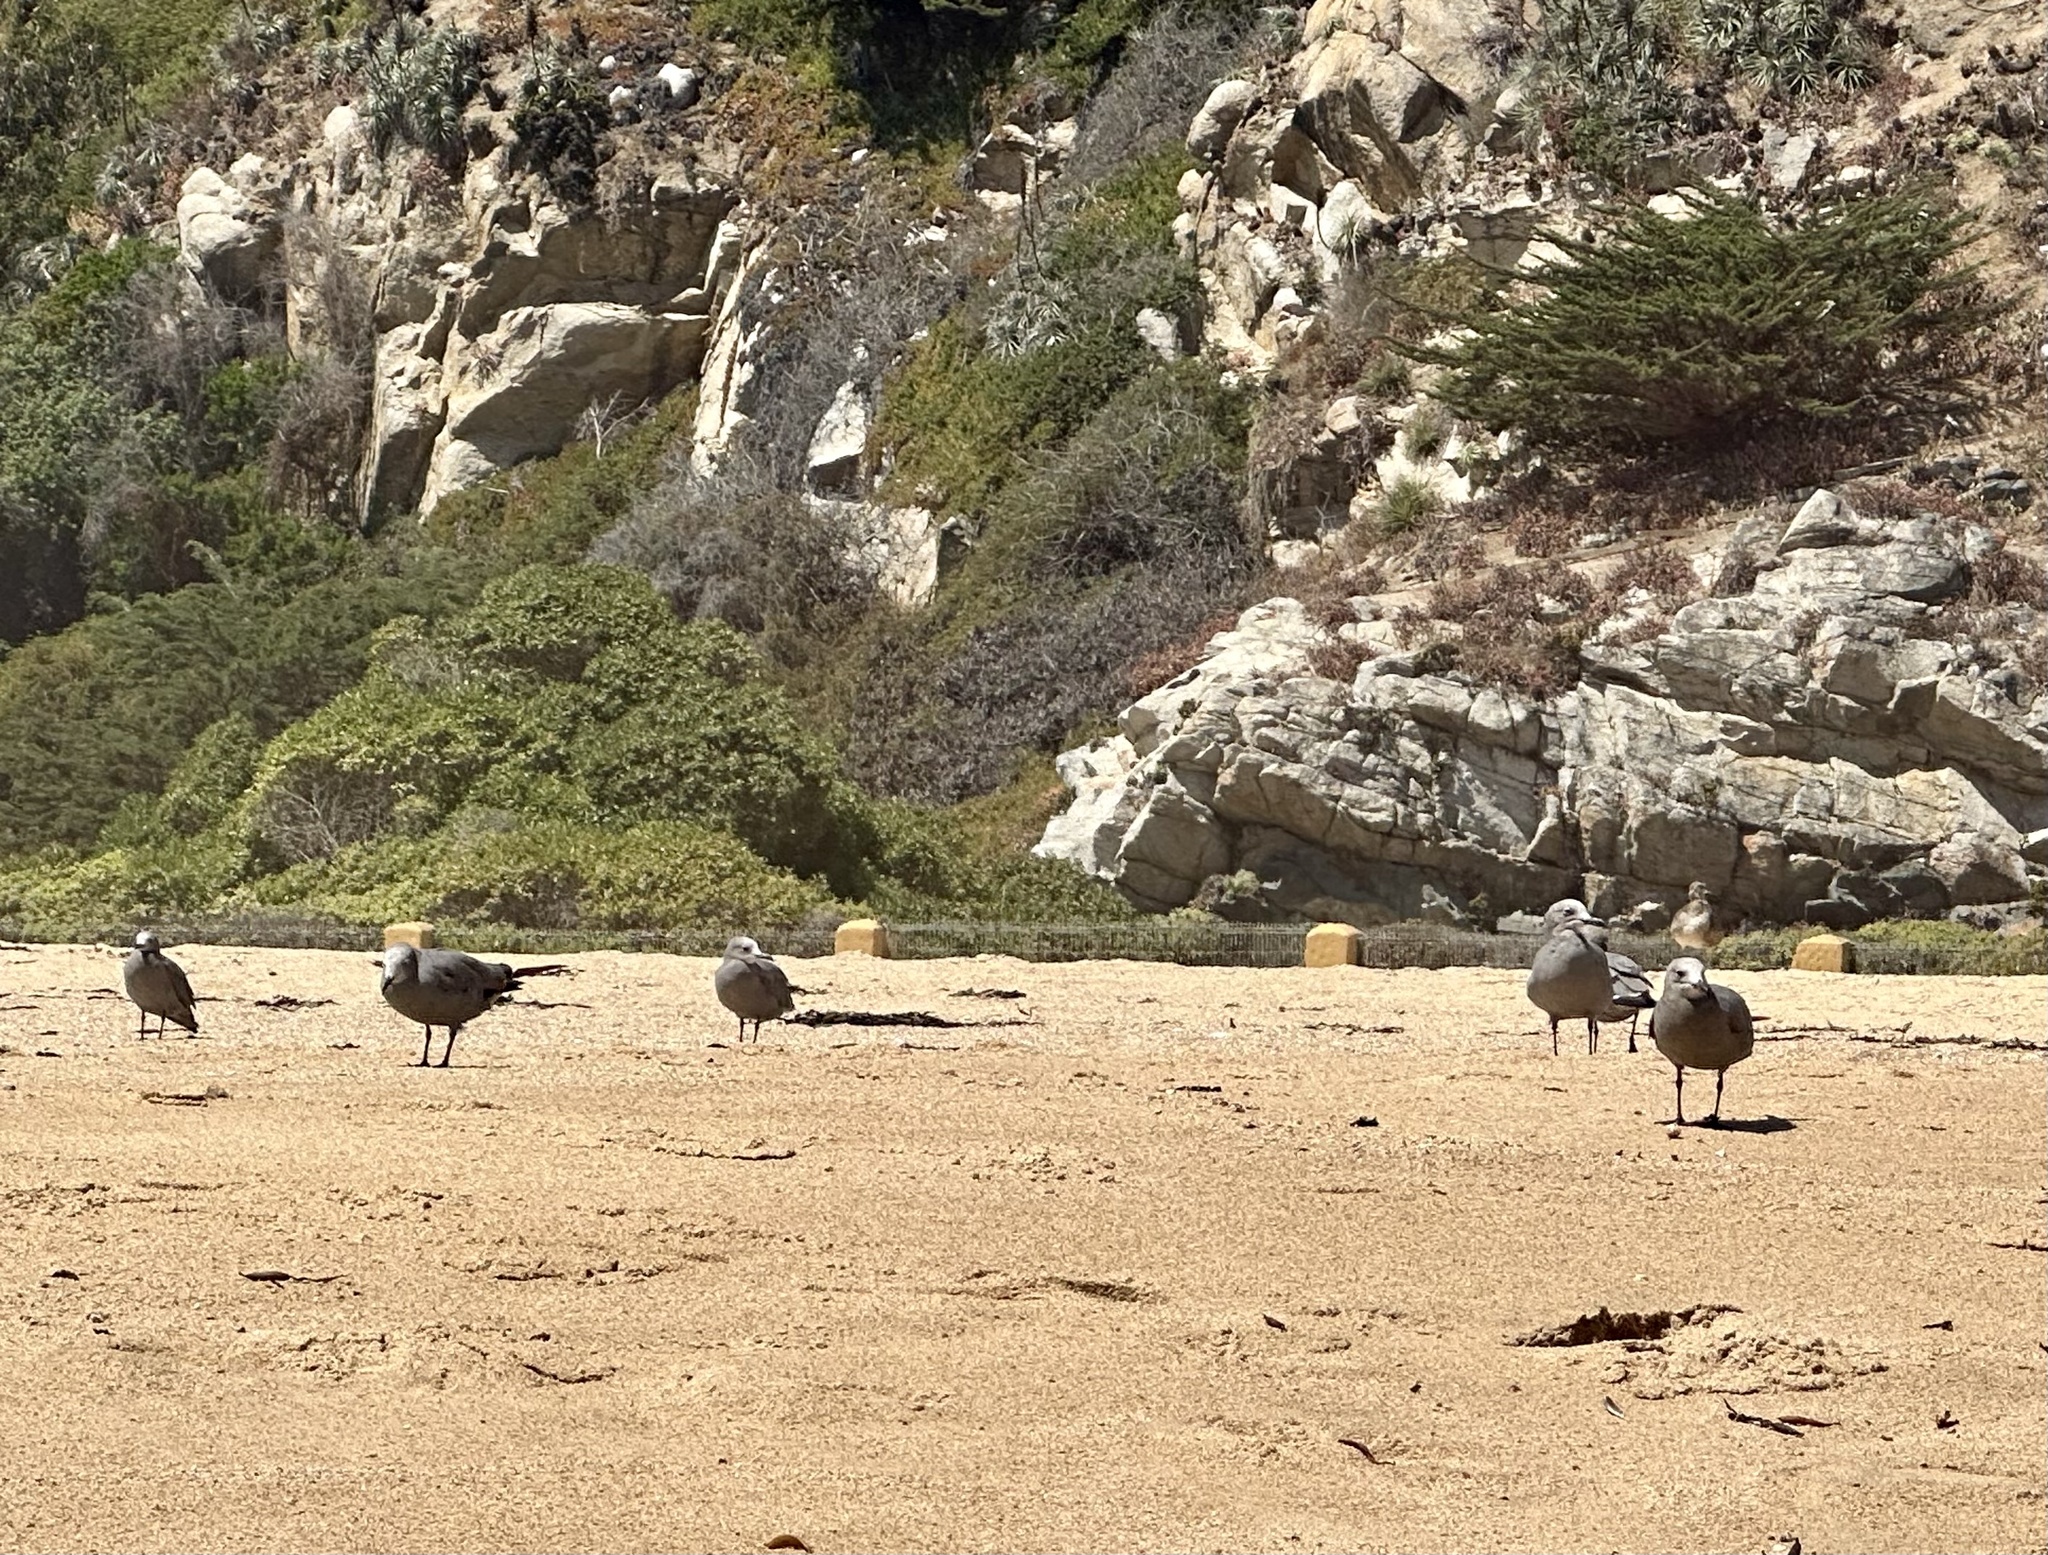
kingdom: Animalia
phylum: Chordata
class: Aves
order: Charadriiformes
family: Laridae
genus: Leucophaeus
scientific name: Leucophaeus modestus
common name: Gray gull
